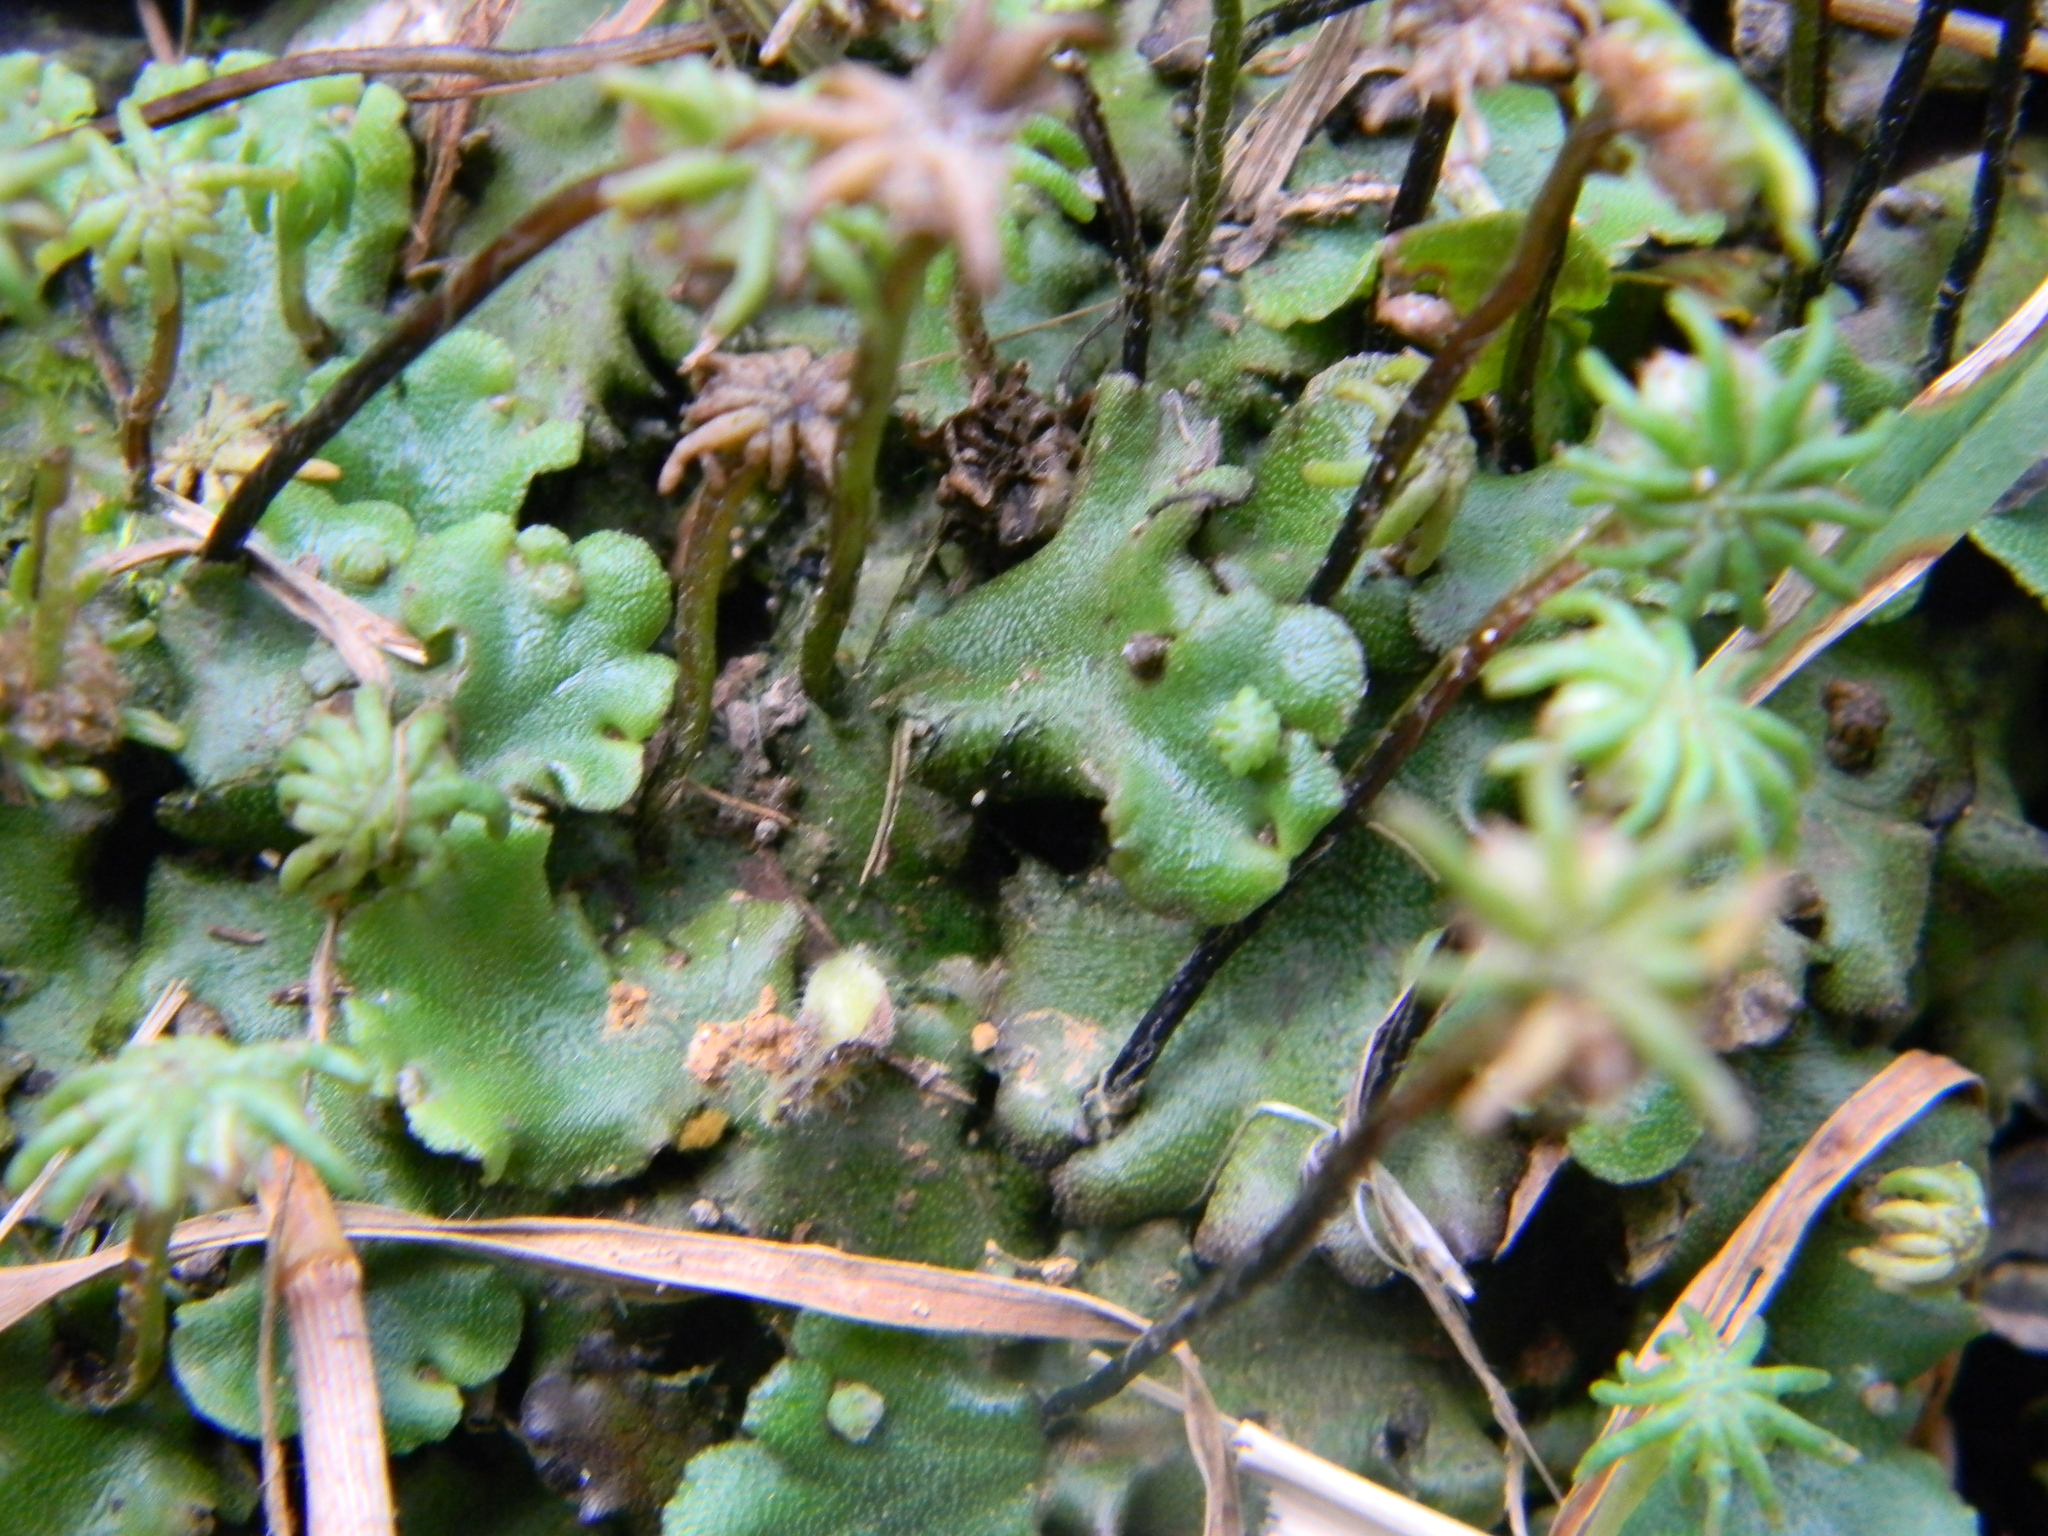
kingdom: Plantae
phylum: Marchantiophyta
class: Marchantiopsida
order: Marchantiales
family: Marchantiaceae
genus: Marchantia
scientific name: Marchantia polymorpha
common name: Common liverwort
